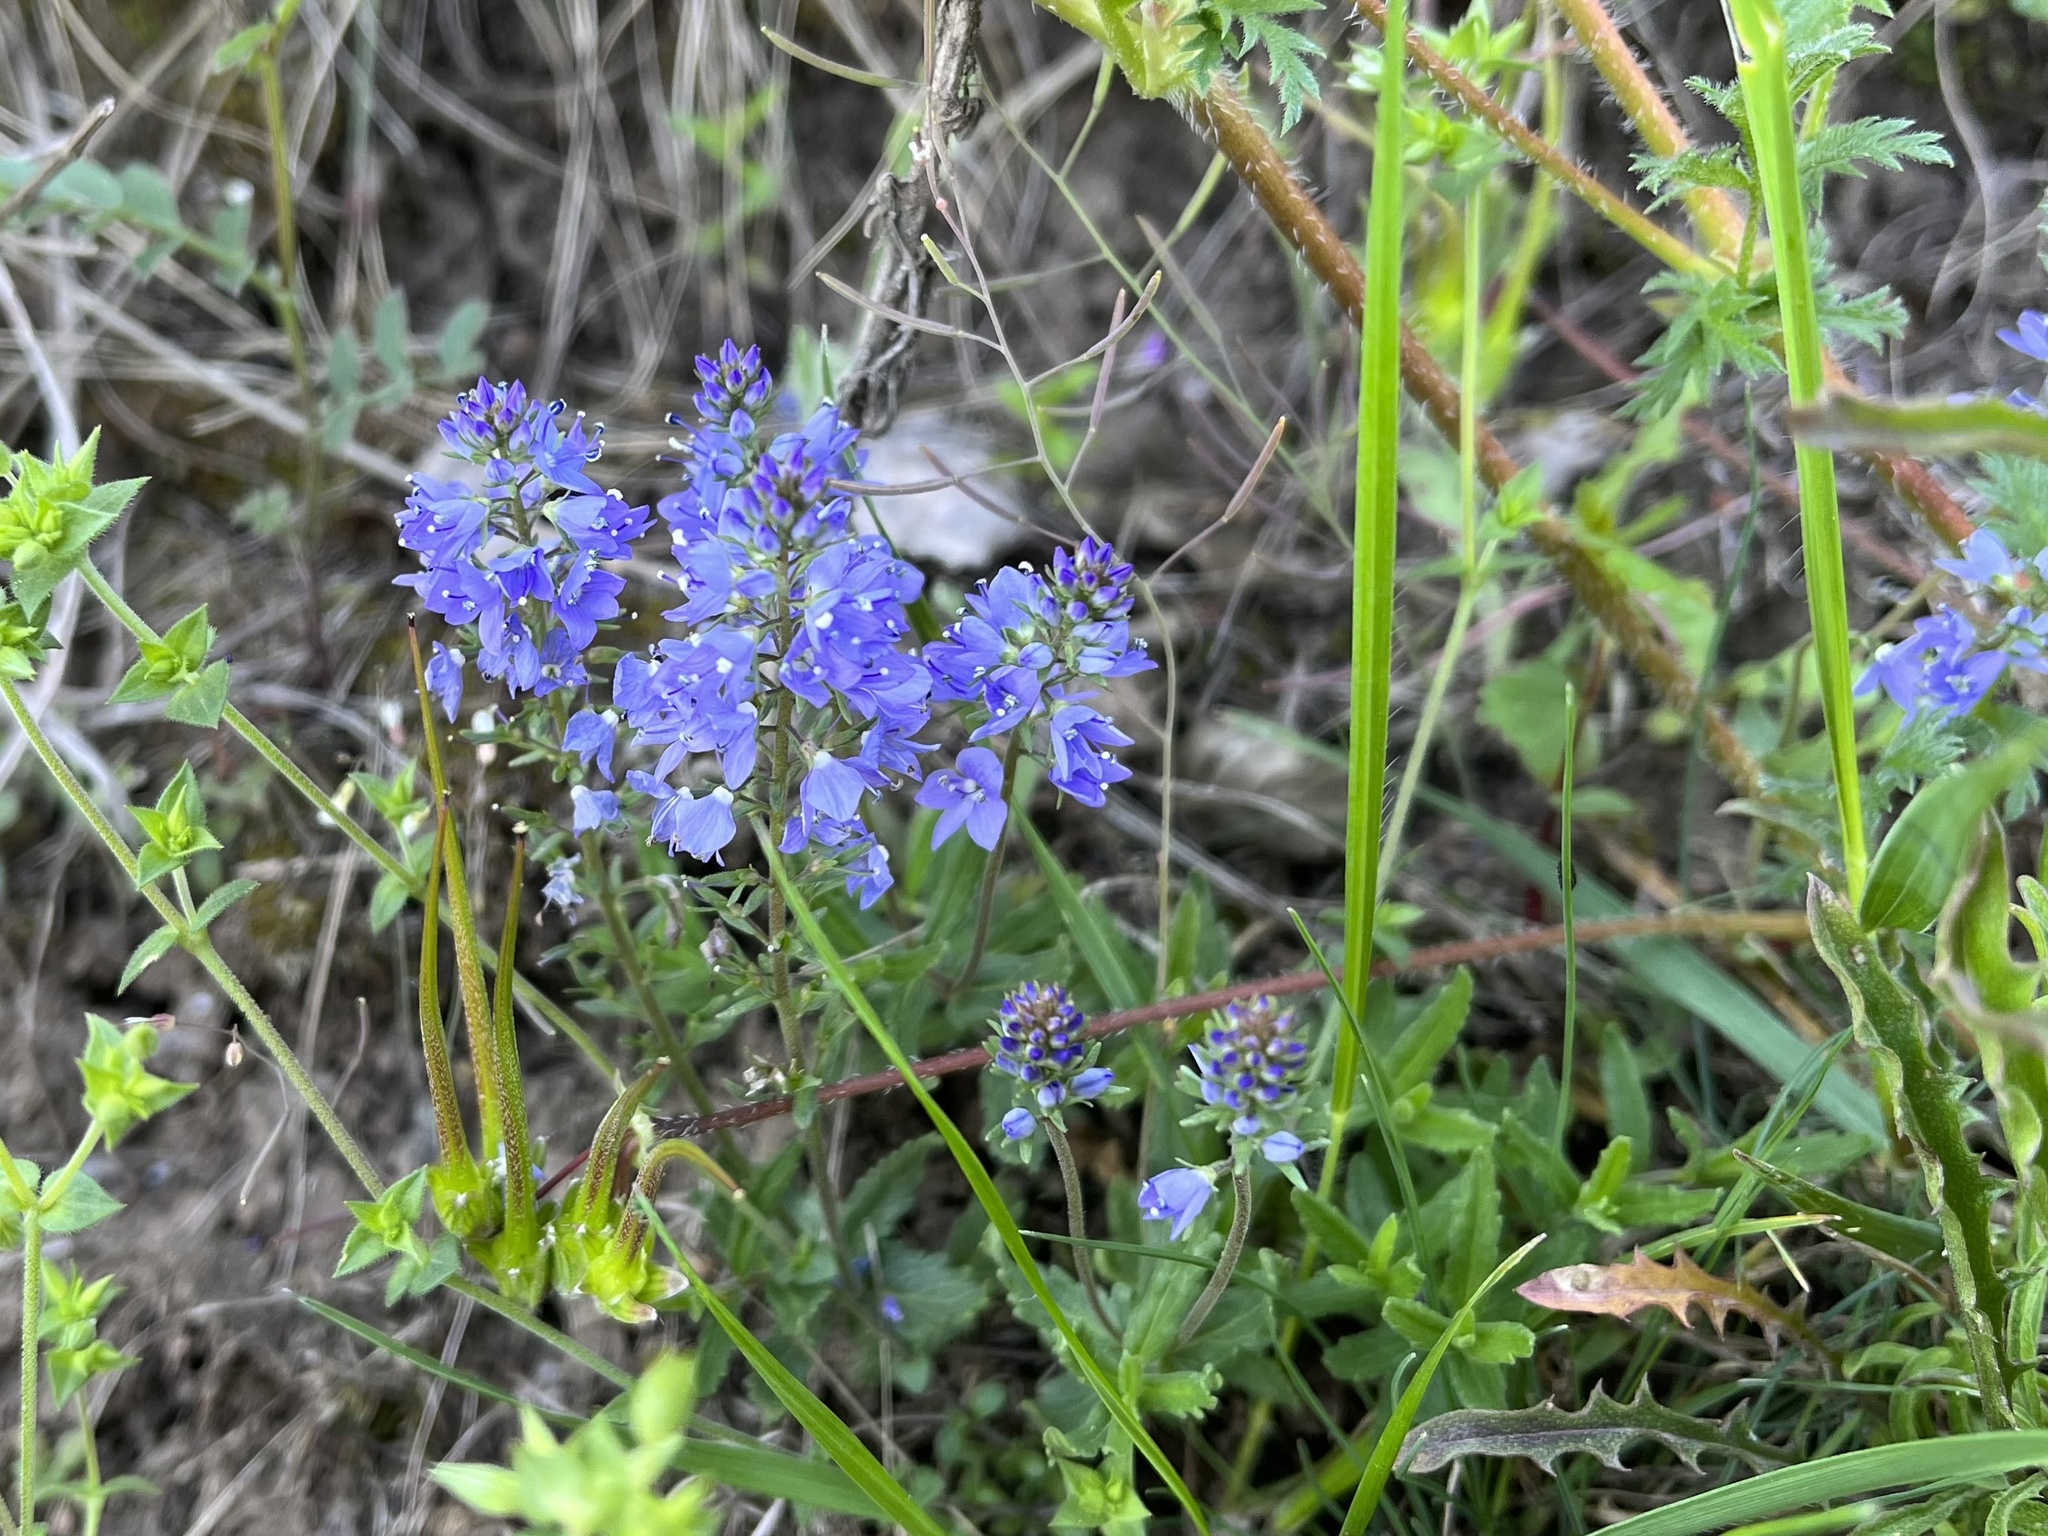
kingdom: Plantae
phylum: Tracheophyta
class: Magnoliopsida
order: Lamiales
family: Plantaginaceae
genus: Veronica
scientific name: Veronica prostrata
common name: Prostrate speedwell
